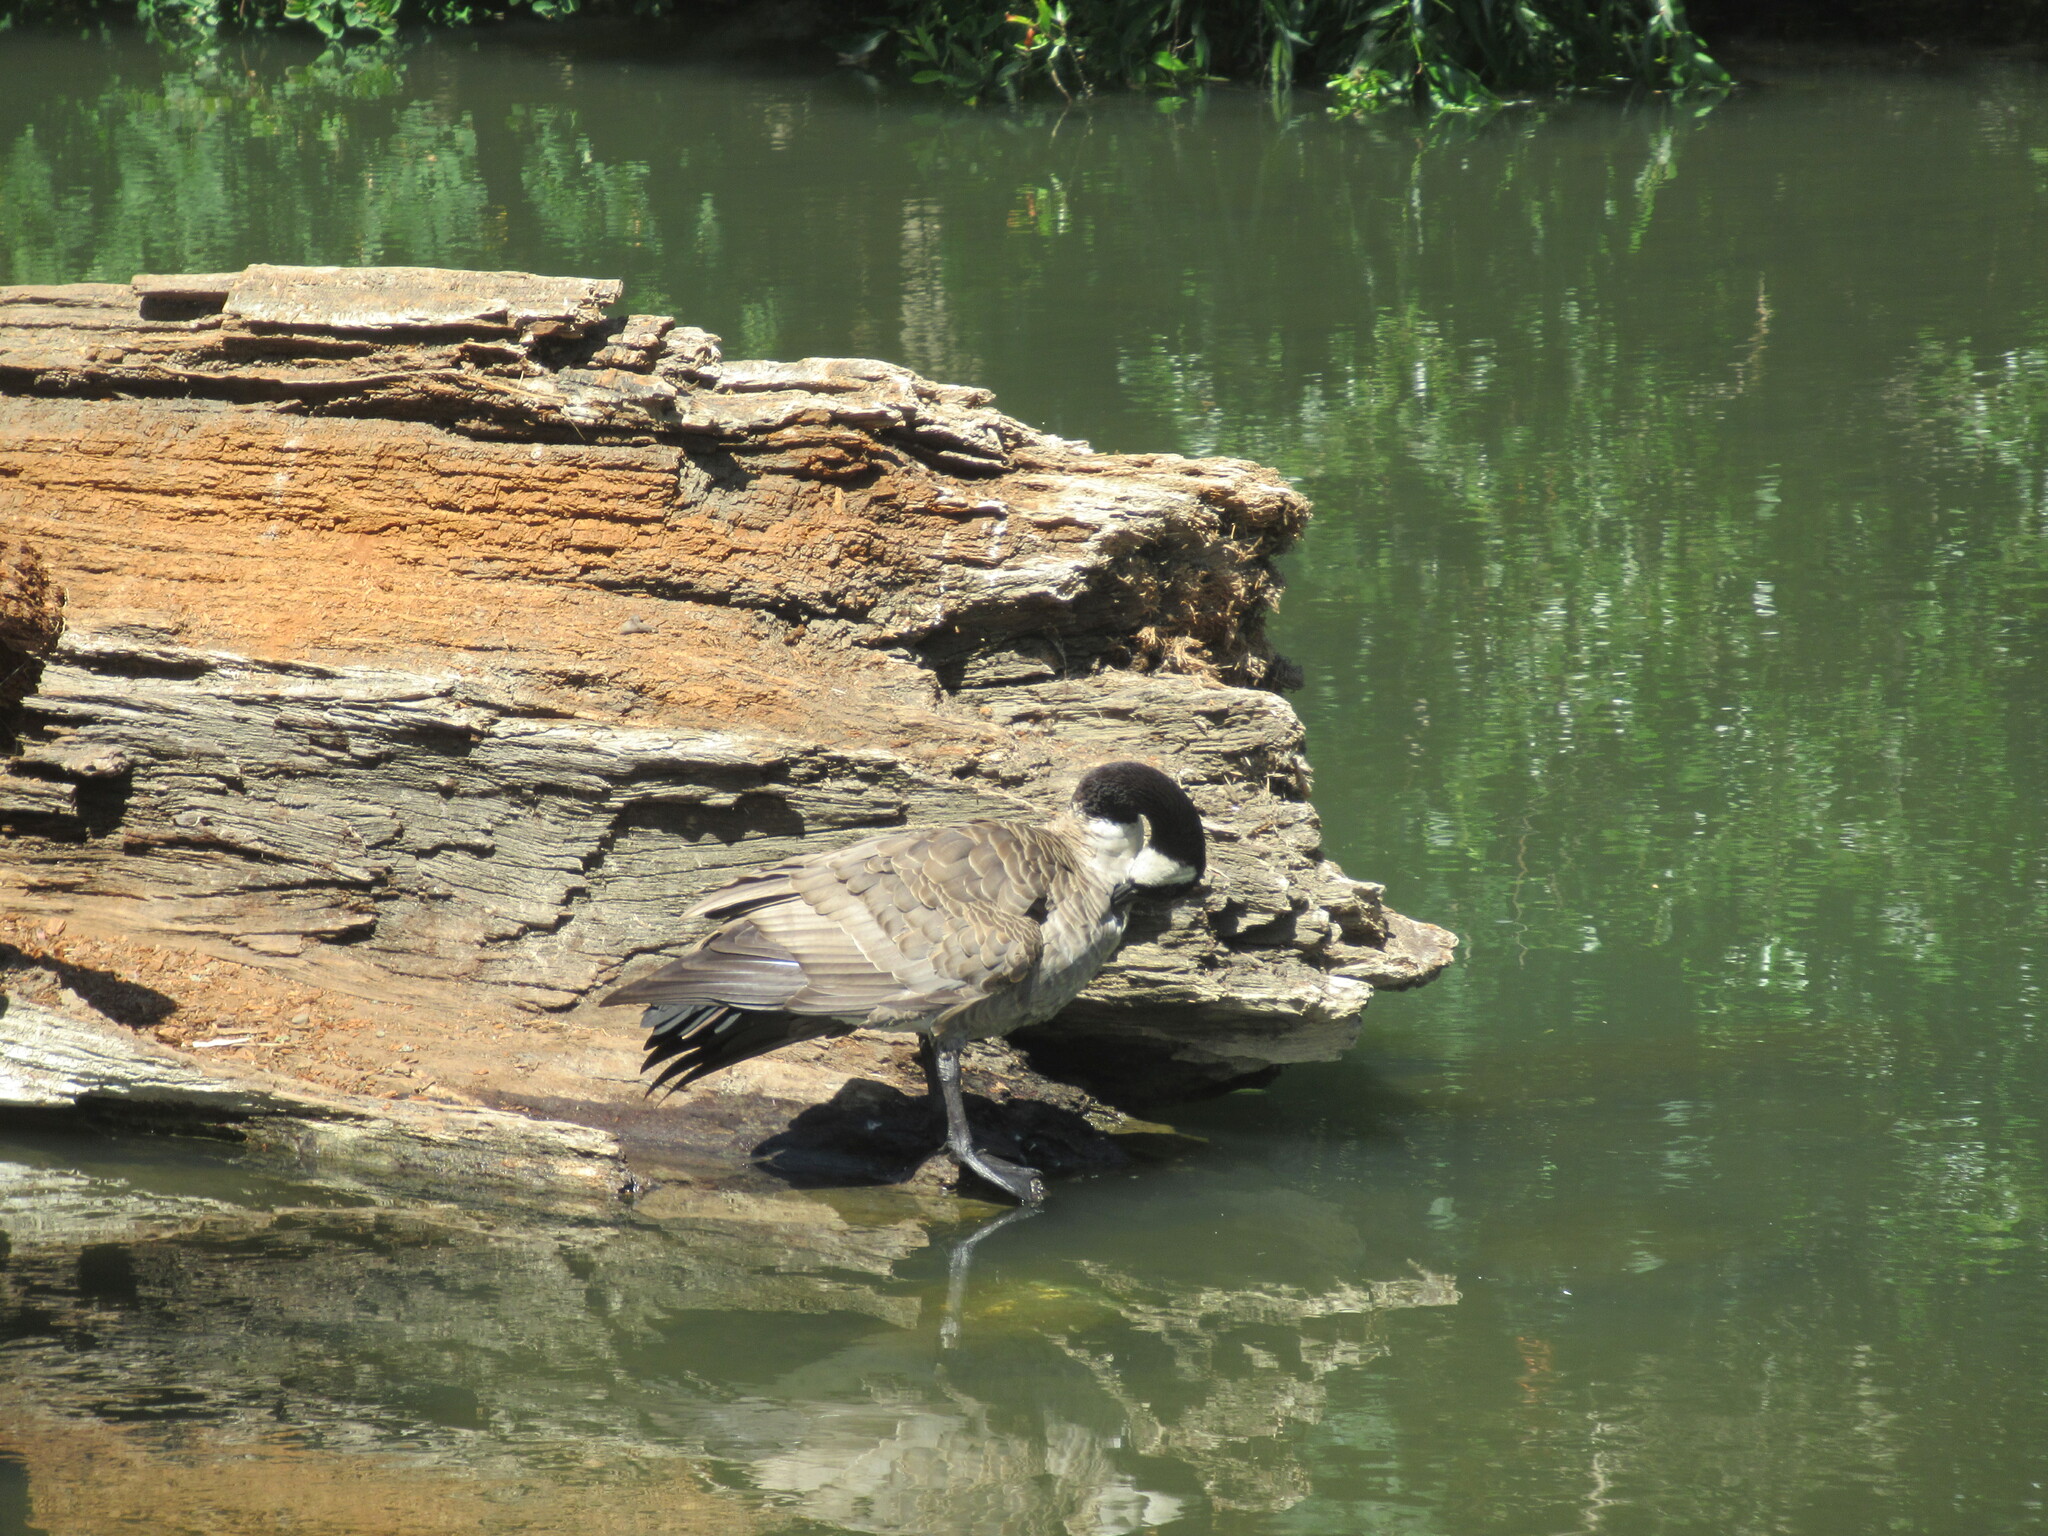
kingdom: Animalia
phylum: Chordata
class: Aves
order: Anseriformes
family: Anatidae
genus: Branta
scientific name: Branta canadensis
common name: Canada goose
